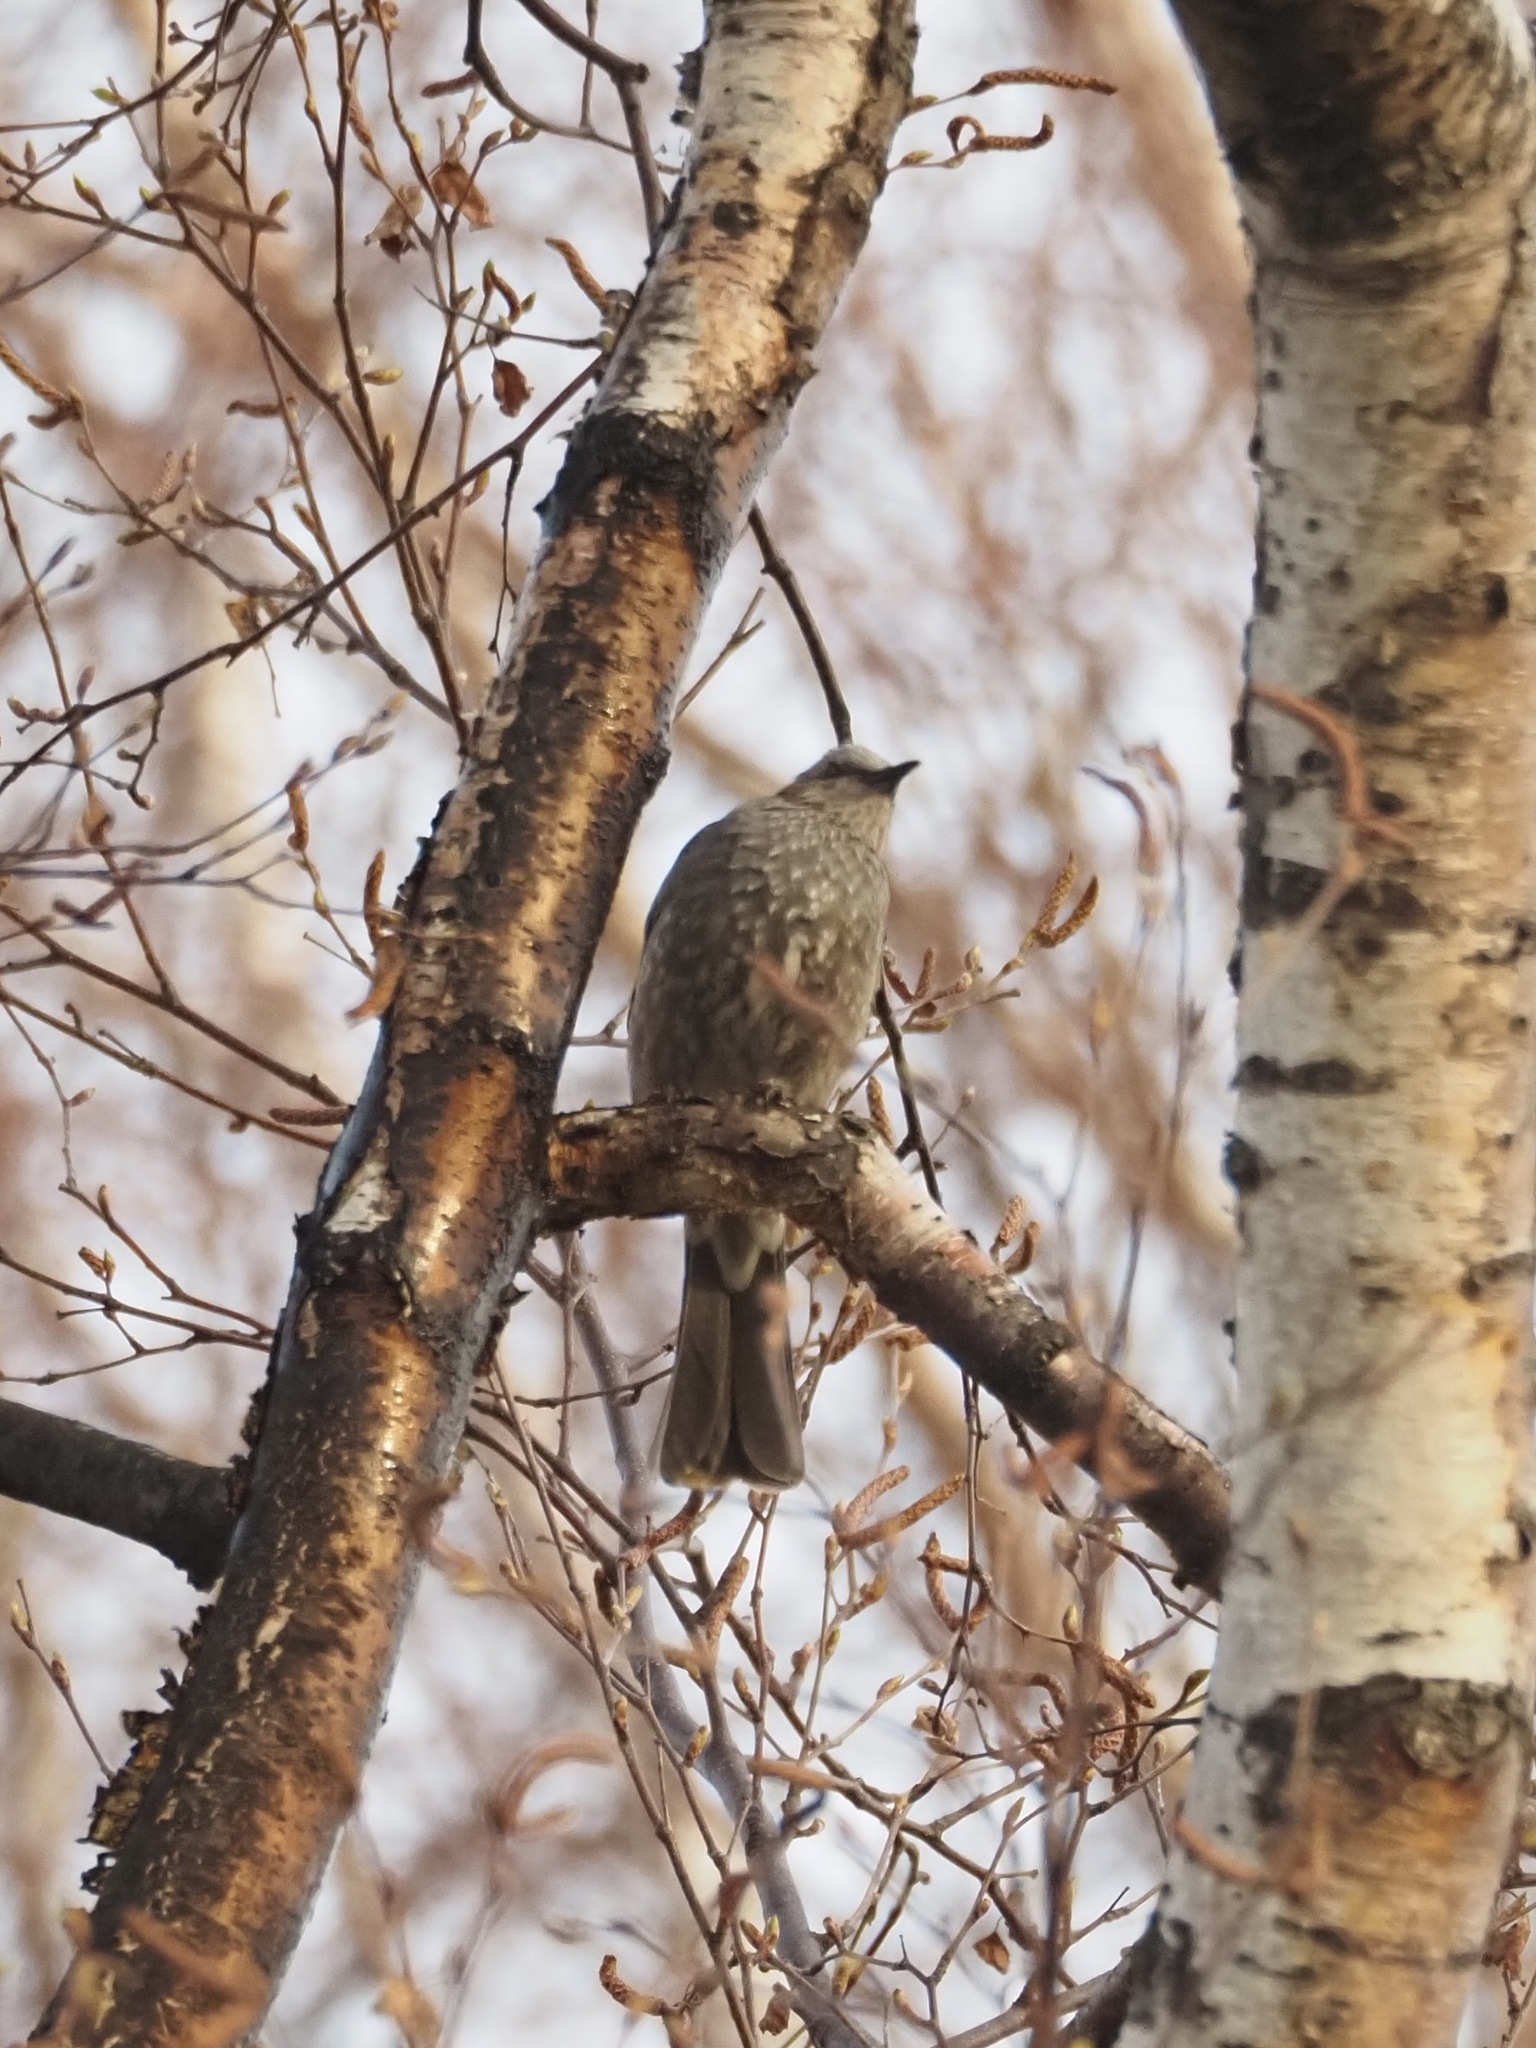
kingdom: Animalia
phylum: Chordata
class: Aves
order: Passeriformes
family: Pycnonotidae
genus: Hypsipetes
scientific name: Hypsipetes amaurotis
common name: Brown-eared bulbul
